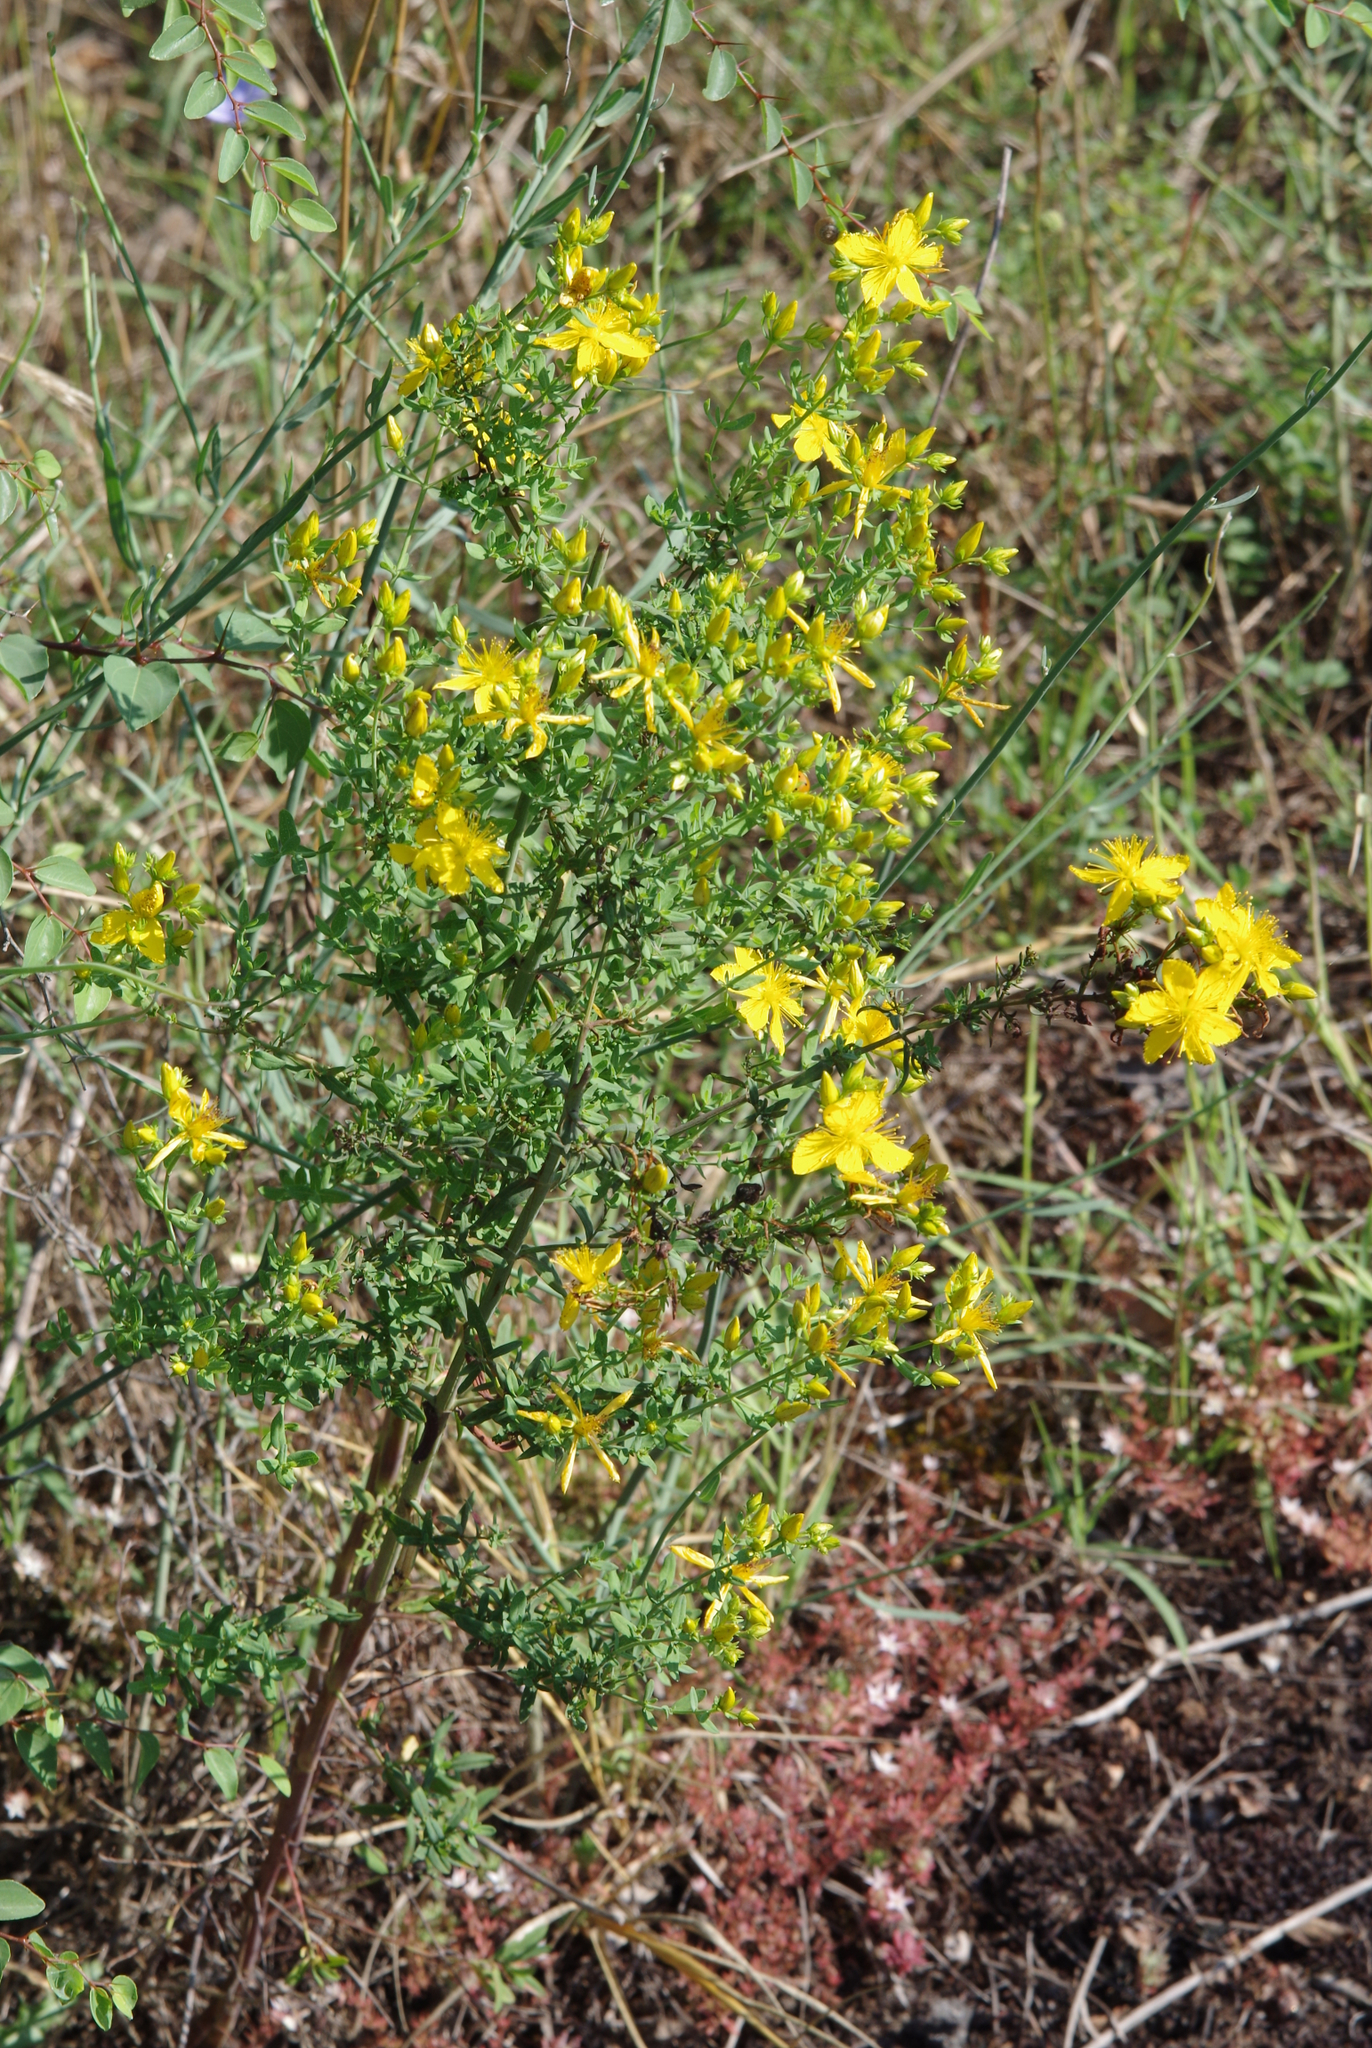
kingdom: Plantae
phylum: Tracheophyta
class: Magnoliopsida
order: Malpighiales
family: Hypericaceae
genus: Hypericum
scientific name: Hypericum perforatum
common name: Common st. johnswort
